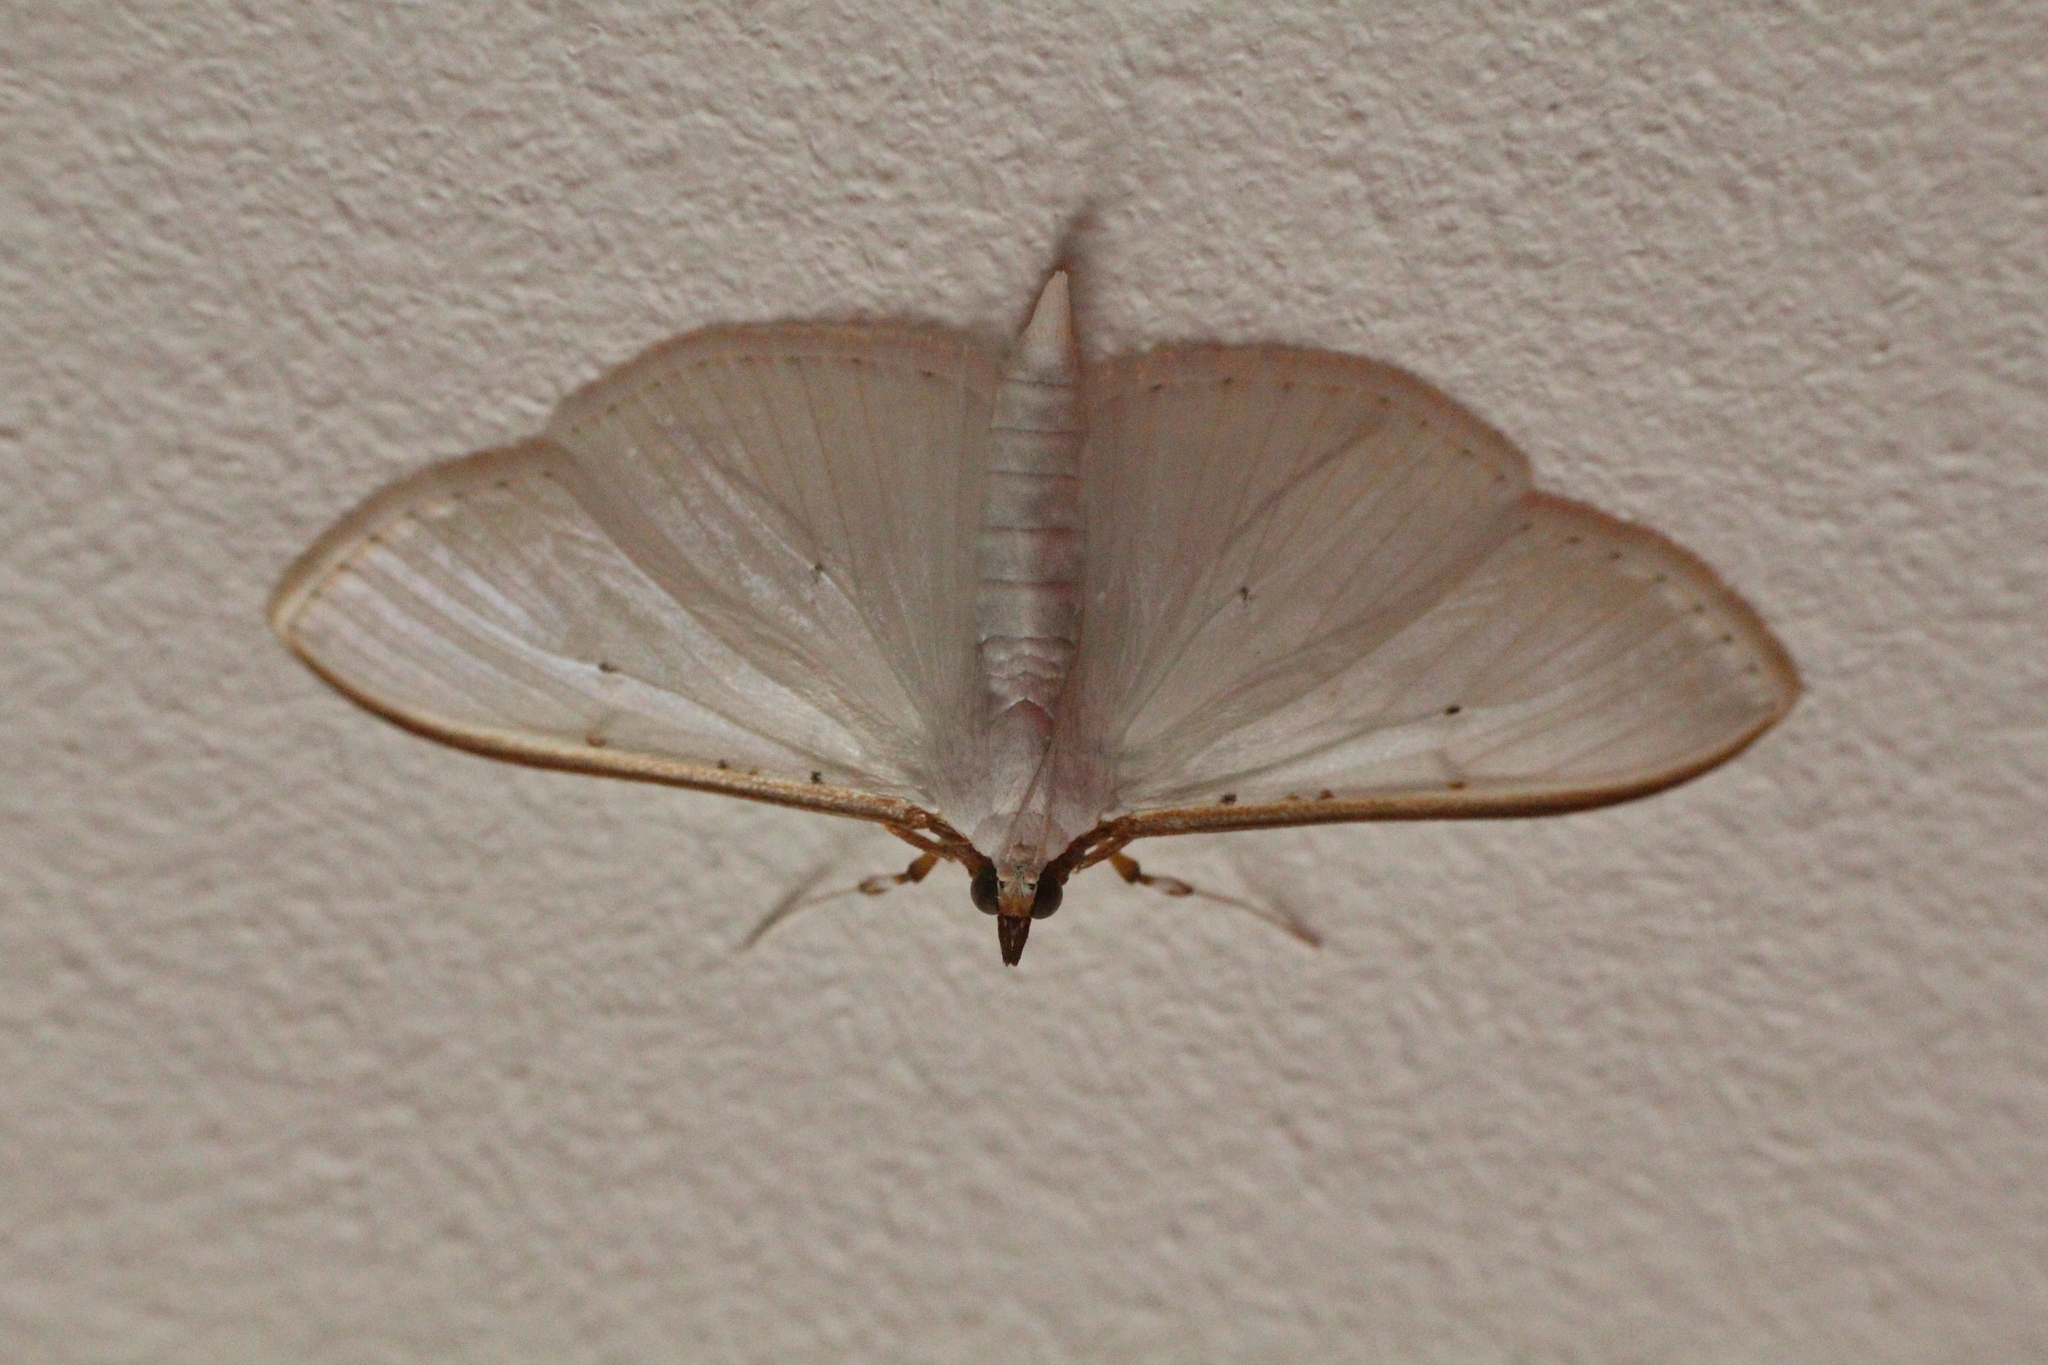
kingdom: Animalia
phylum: Arthropoda
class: Insecta
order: Lepidoptera
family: Crambidae
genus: Palpita
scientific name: Palpita vitrealis
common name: Olive-tree pearl
